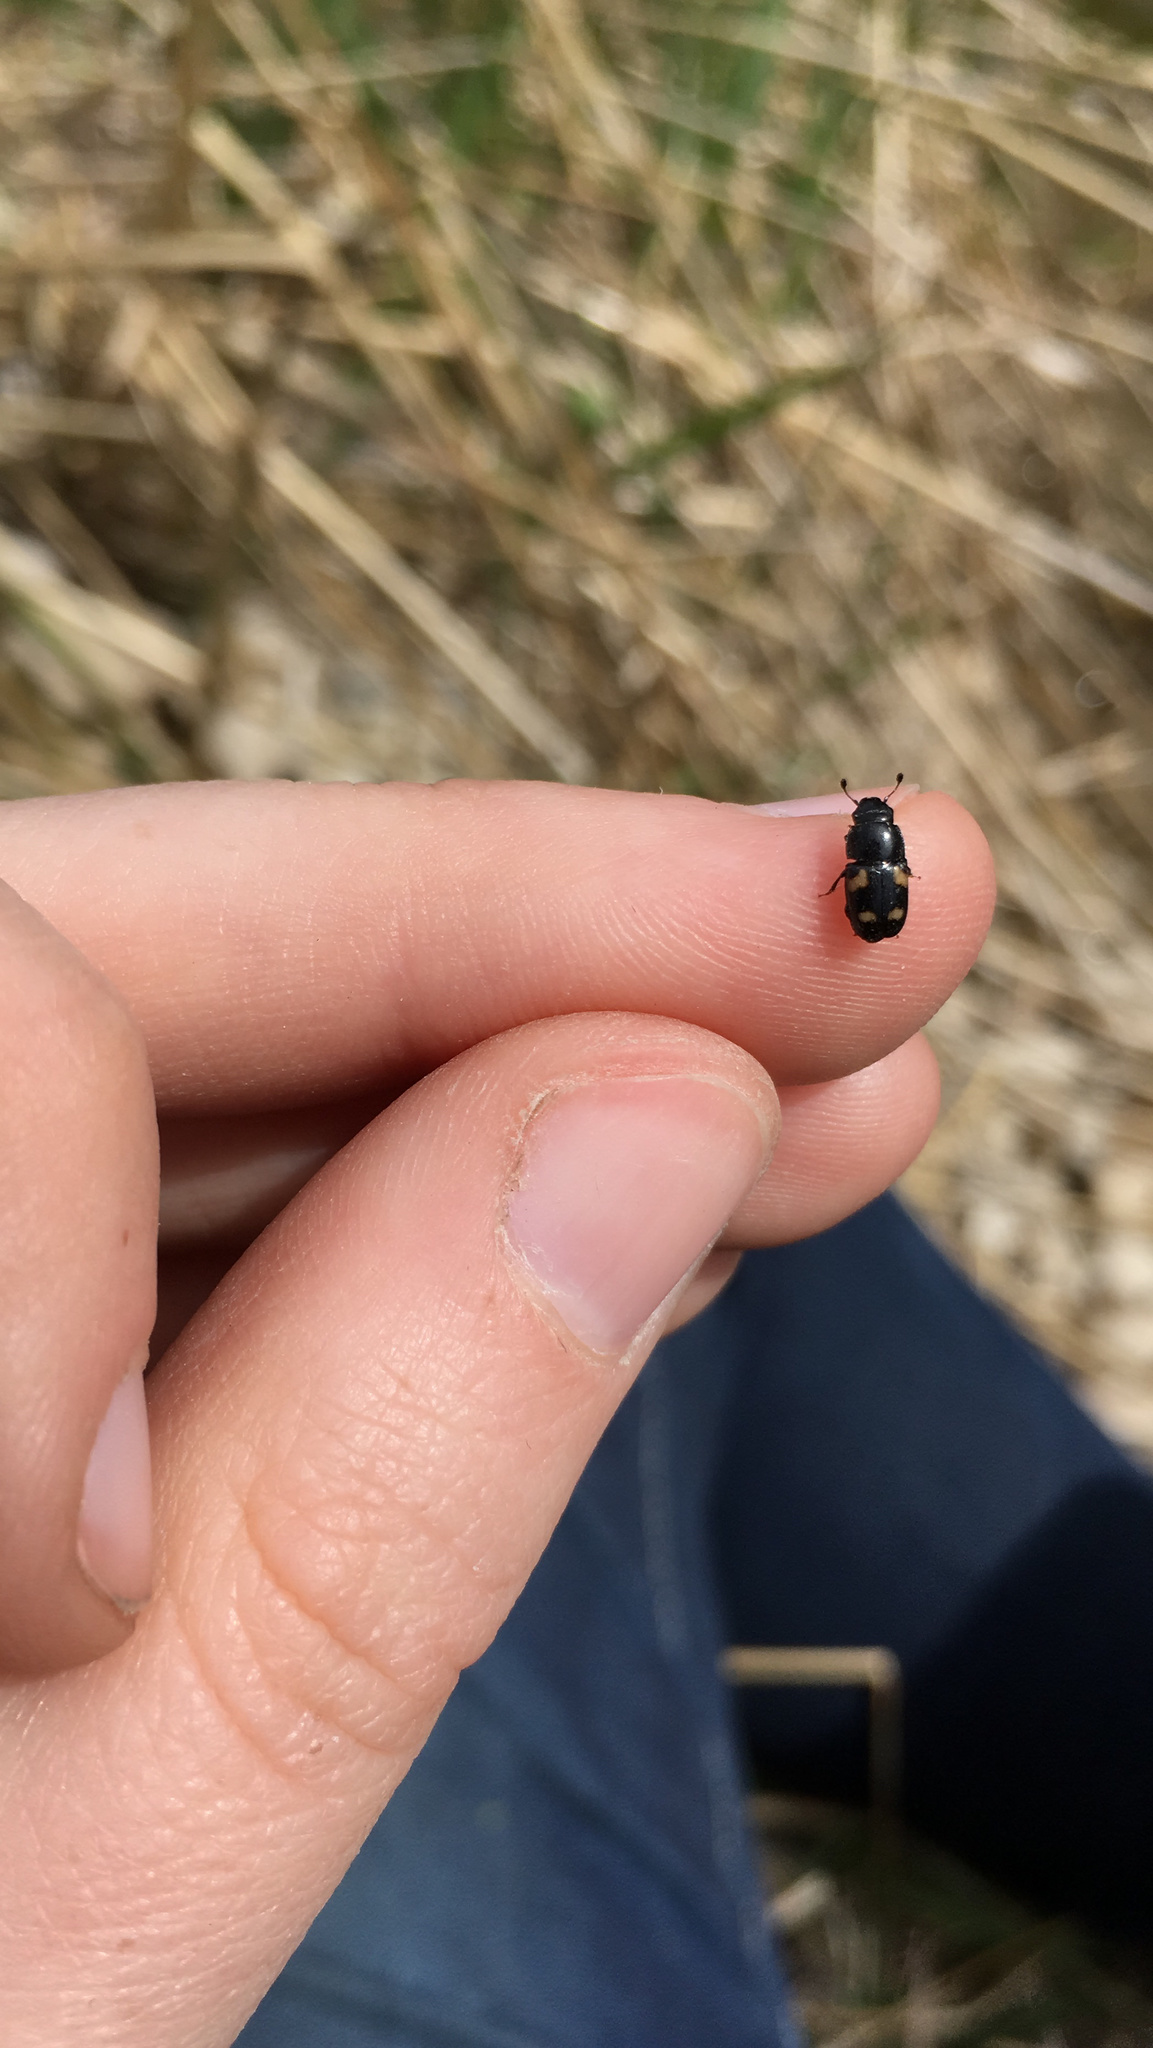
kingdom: Animalia
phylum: Arthropoda
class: Insecta
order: Coleoptera
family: Nitidulidae
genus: Glischrochilus
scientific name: Glischrochilus quadrisignatus
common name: Picnic beetle
